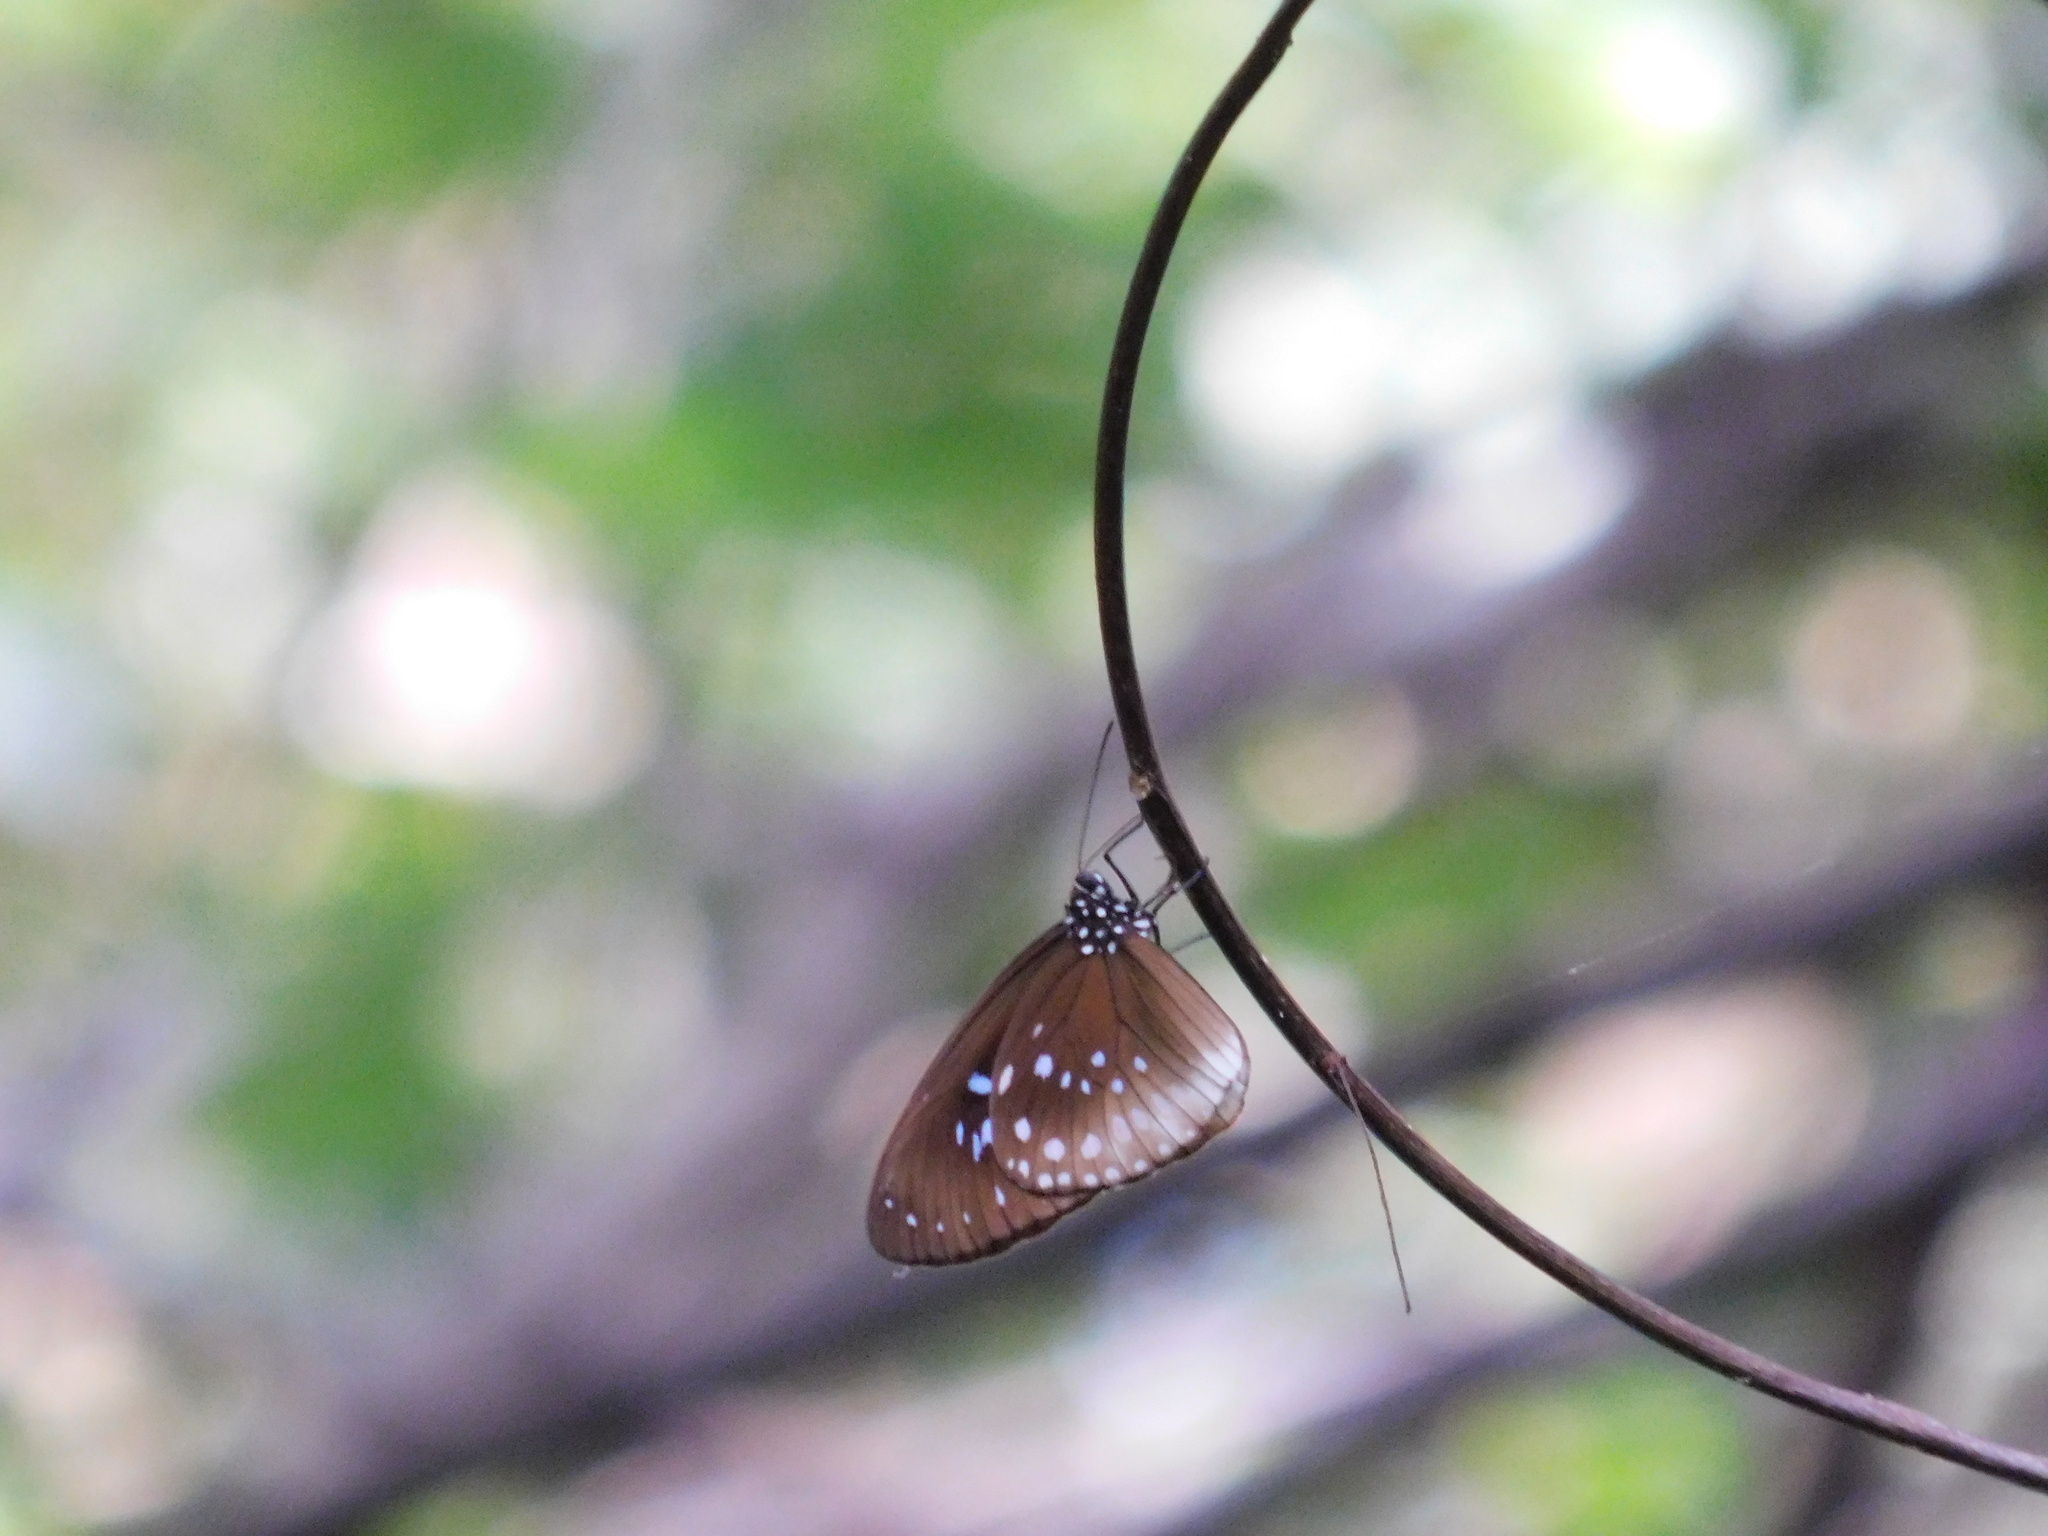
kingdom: Animalia
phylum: Arthropoda
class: Insecta
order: Lepidoptera
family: Nymphalidae
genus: Euploea
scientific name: Euploea climena
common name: Climena crow
